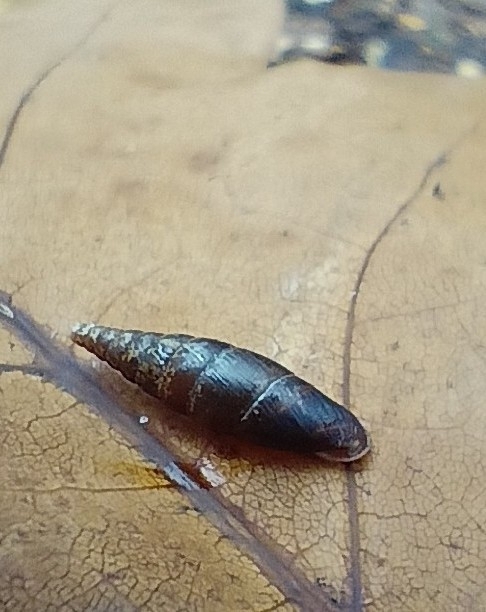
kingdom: Animalia
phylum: Mollusca
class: Gastropoda
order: Stylommatophora
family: Clausiliidae
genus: Cochlodina
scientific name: Cochlodina laminata
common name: Plaited door snail
